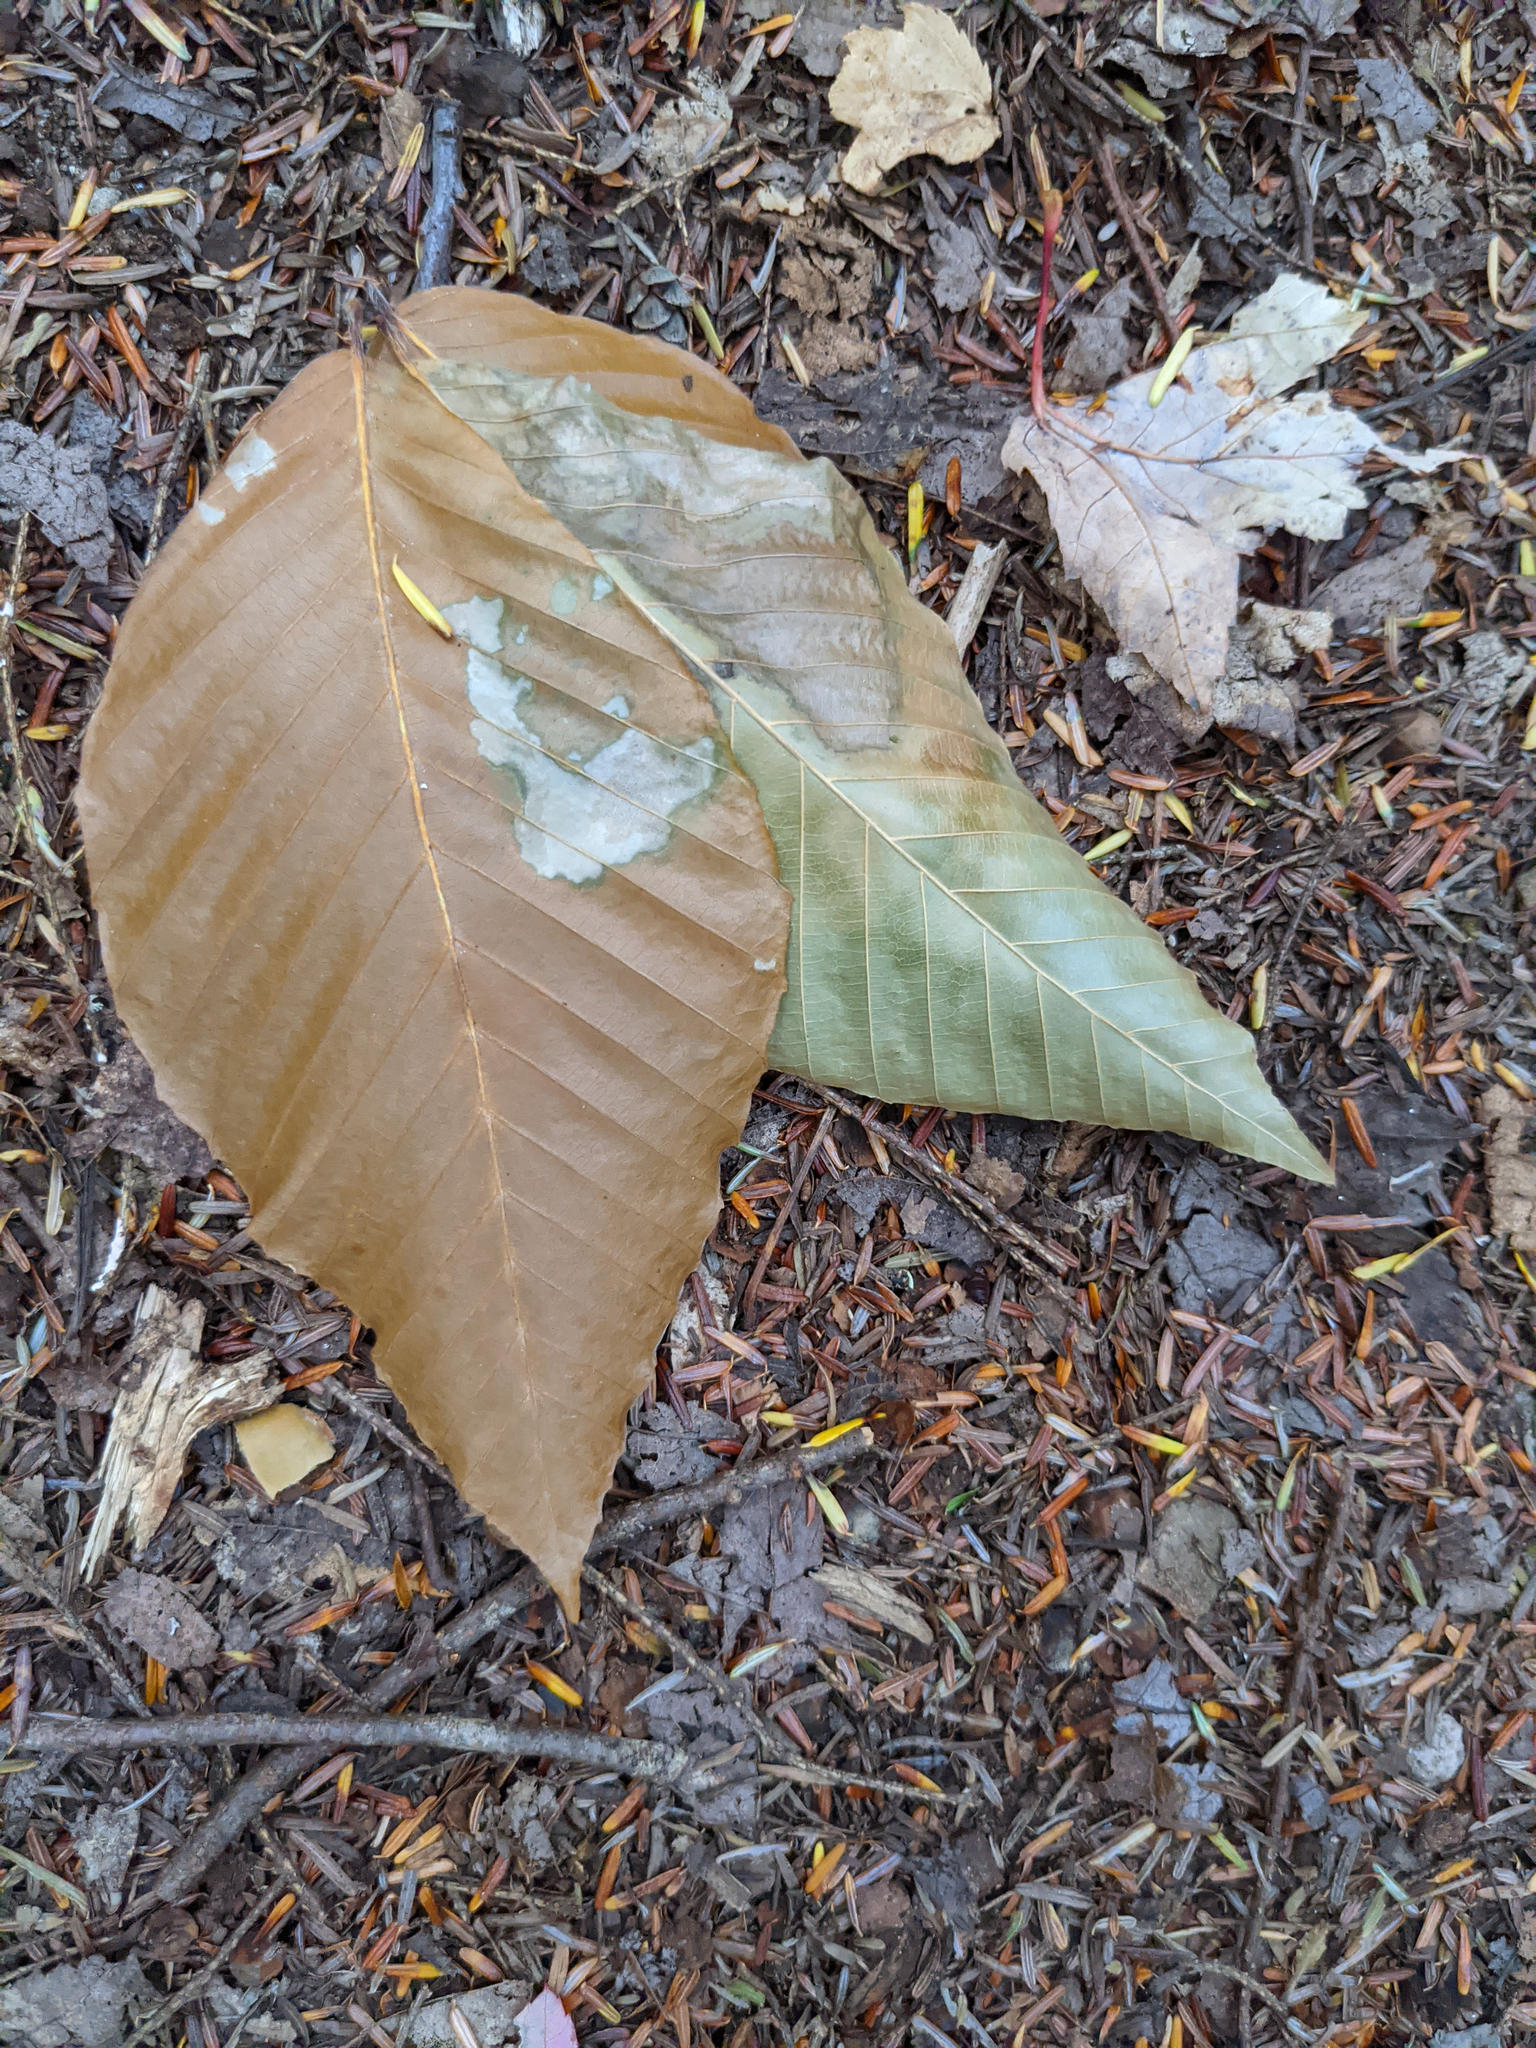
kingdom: Plantae
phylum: Tracheophyta
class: Magnoliopsida
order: Fagales
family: Fagaceae
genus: Fagus
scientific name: Fagus grandifolia
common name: American beech
